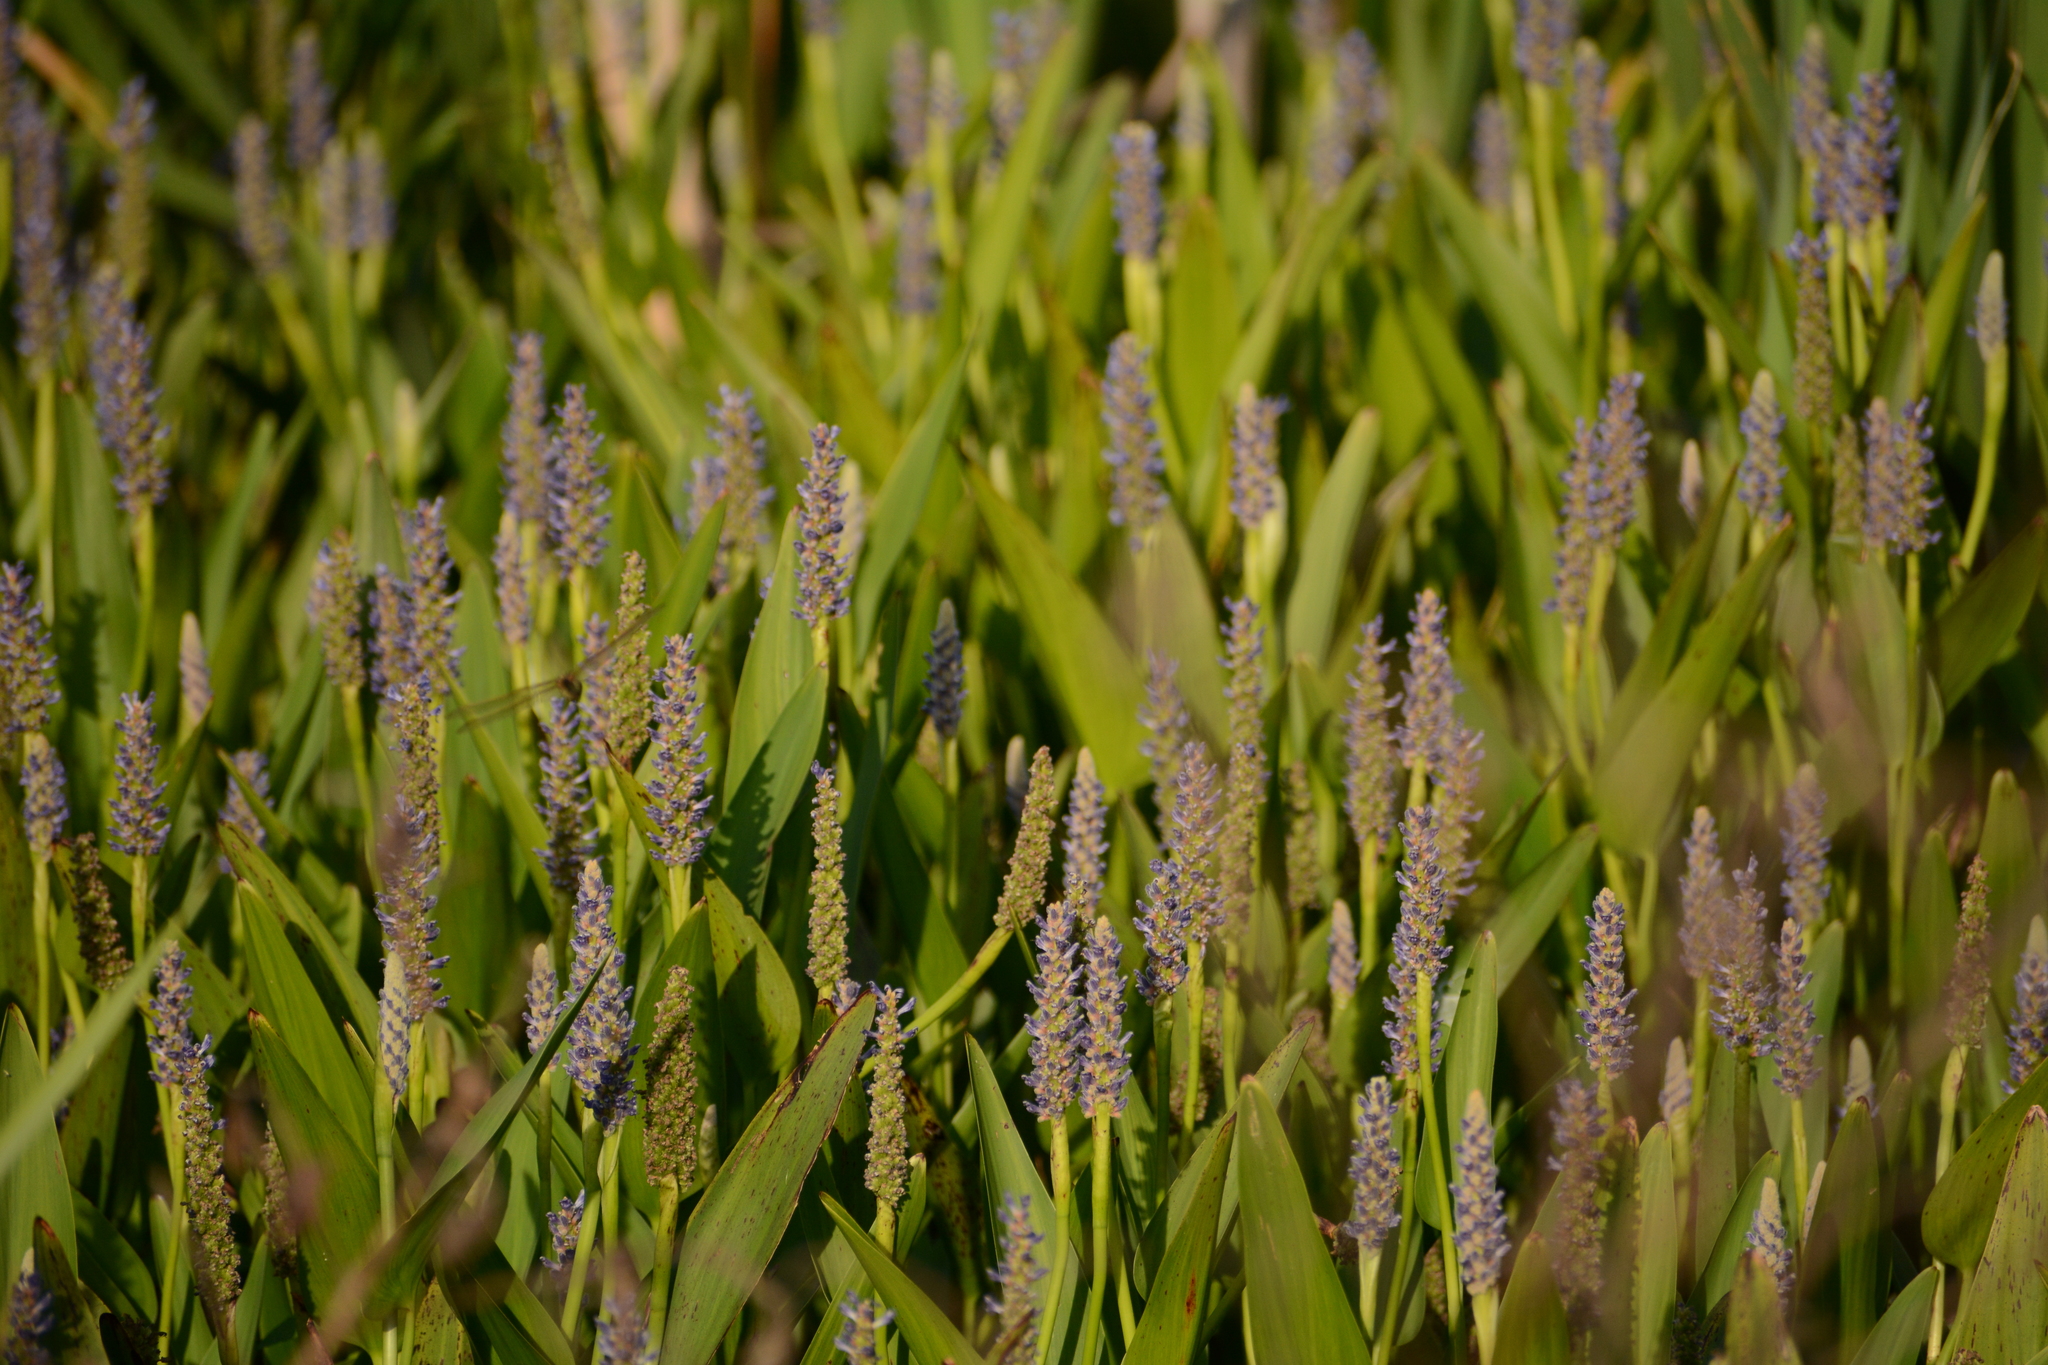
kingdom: Plantae
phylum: Tracheophyta
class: Liliopsida
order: Commelinales
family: Pontederiaceae
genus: Pontederia
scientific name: Pontederia cordata
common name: Pickerelweed
